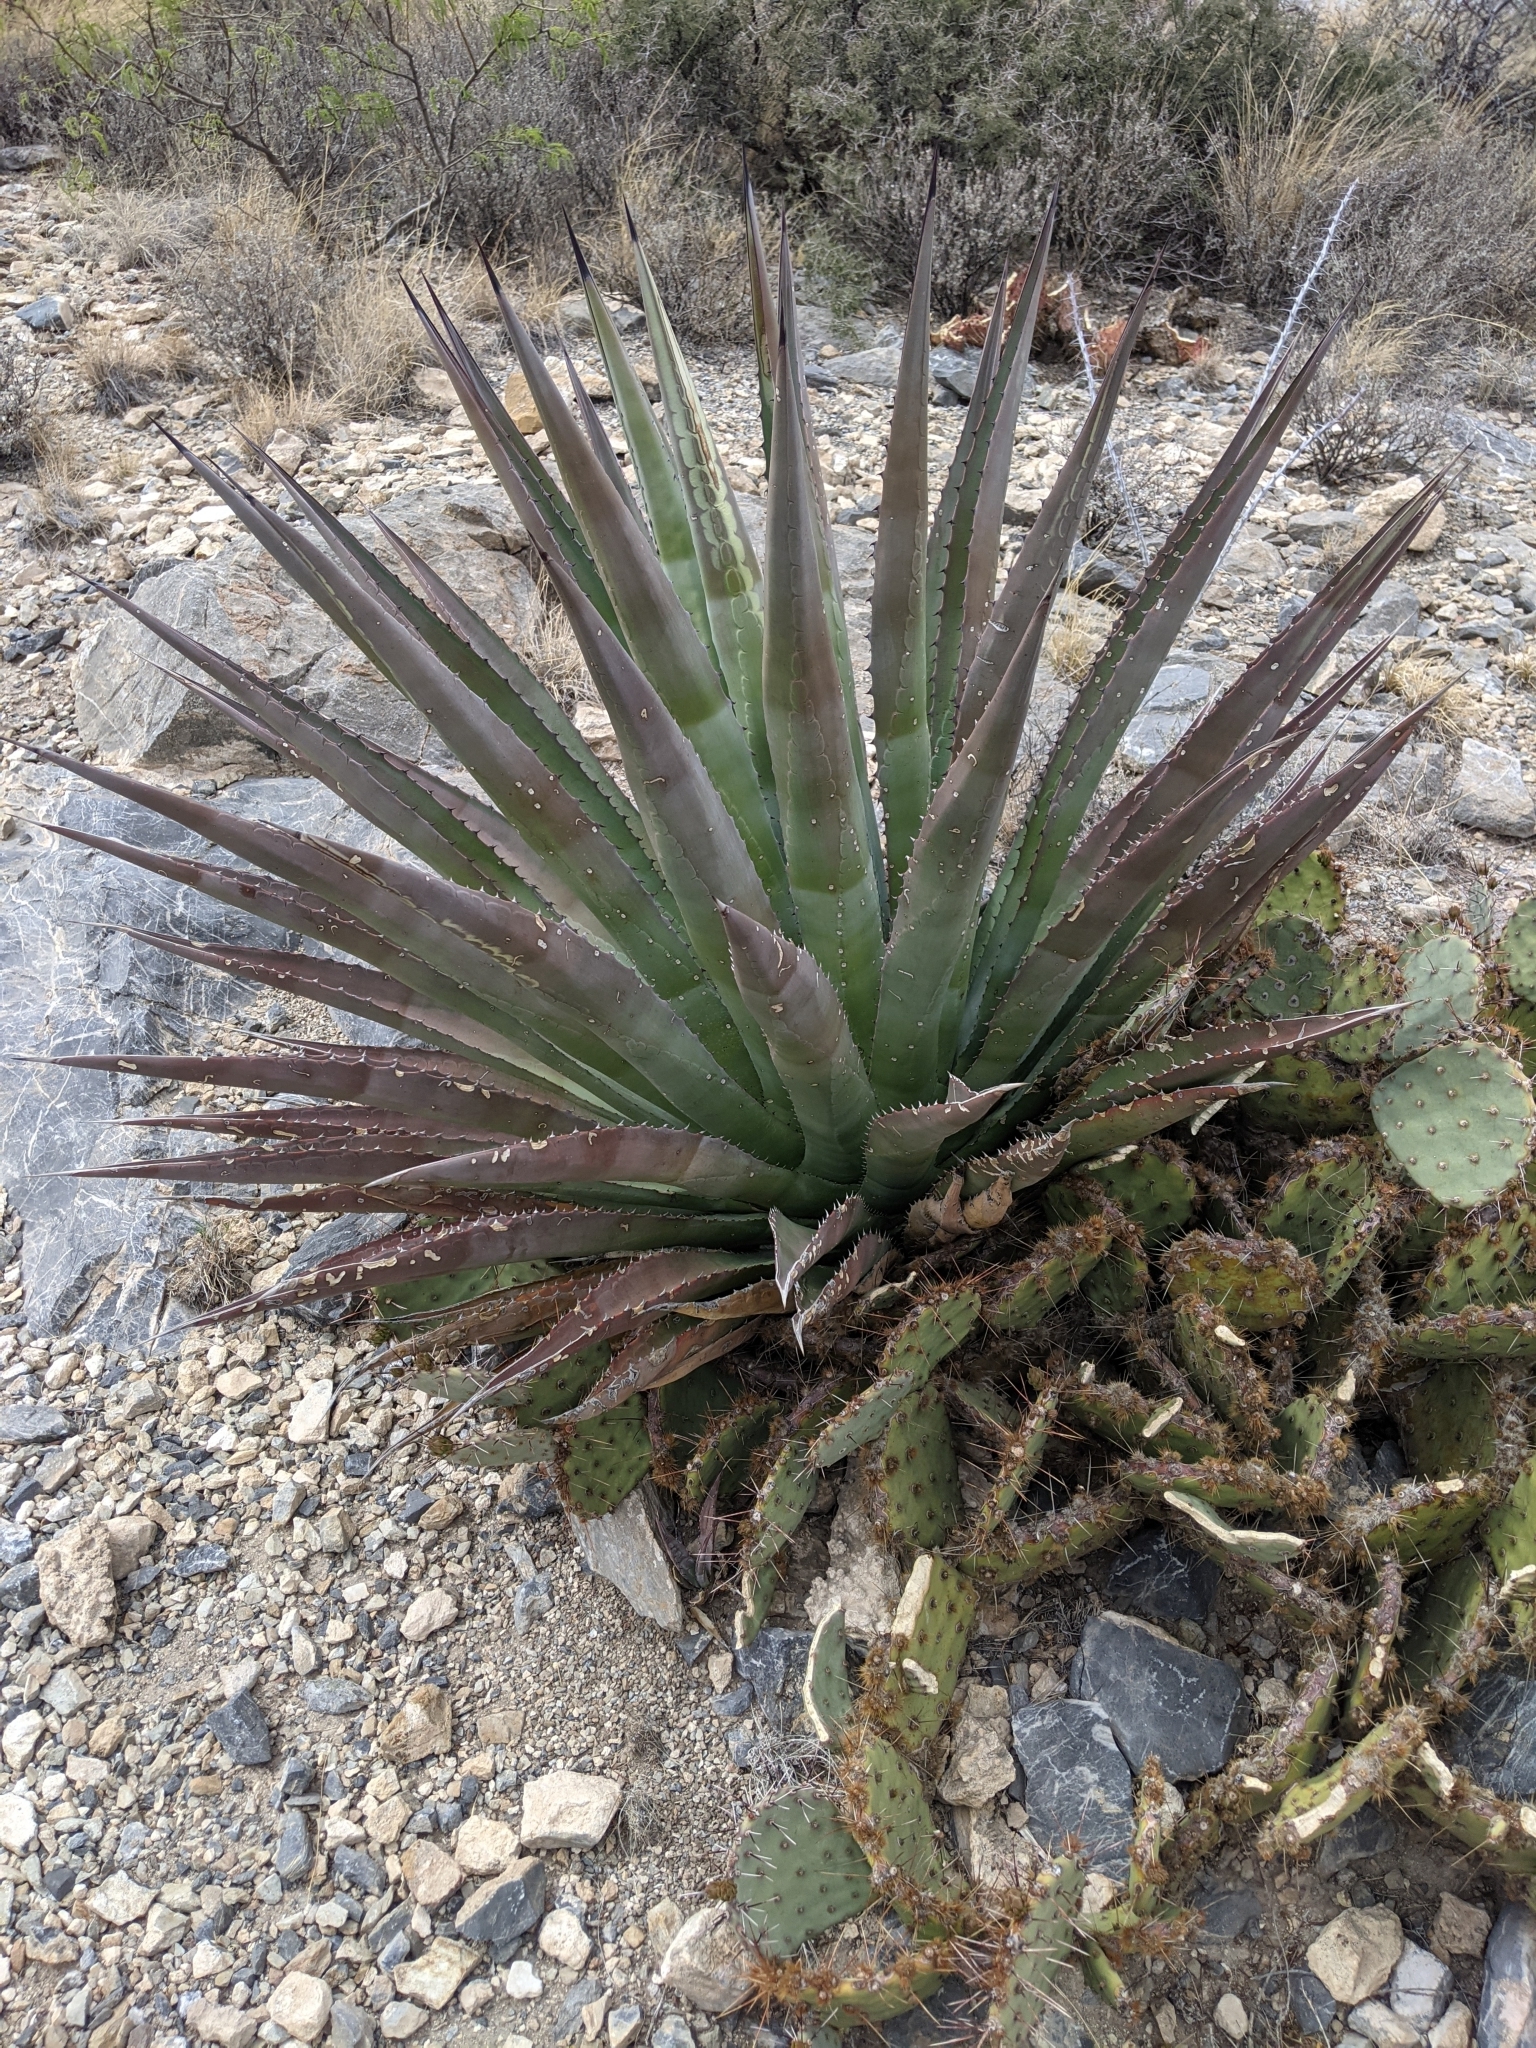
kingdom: Plantae
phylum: Tracheophyta
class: Liliopsida
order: Asparagales
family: Asparagaceae
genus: Agave
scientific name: Agave palmeri
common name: Palmer agave
